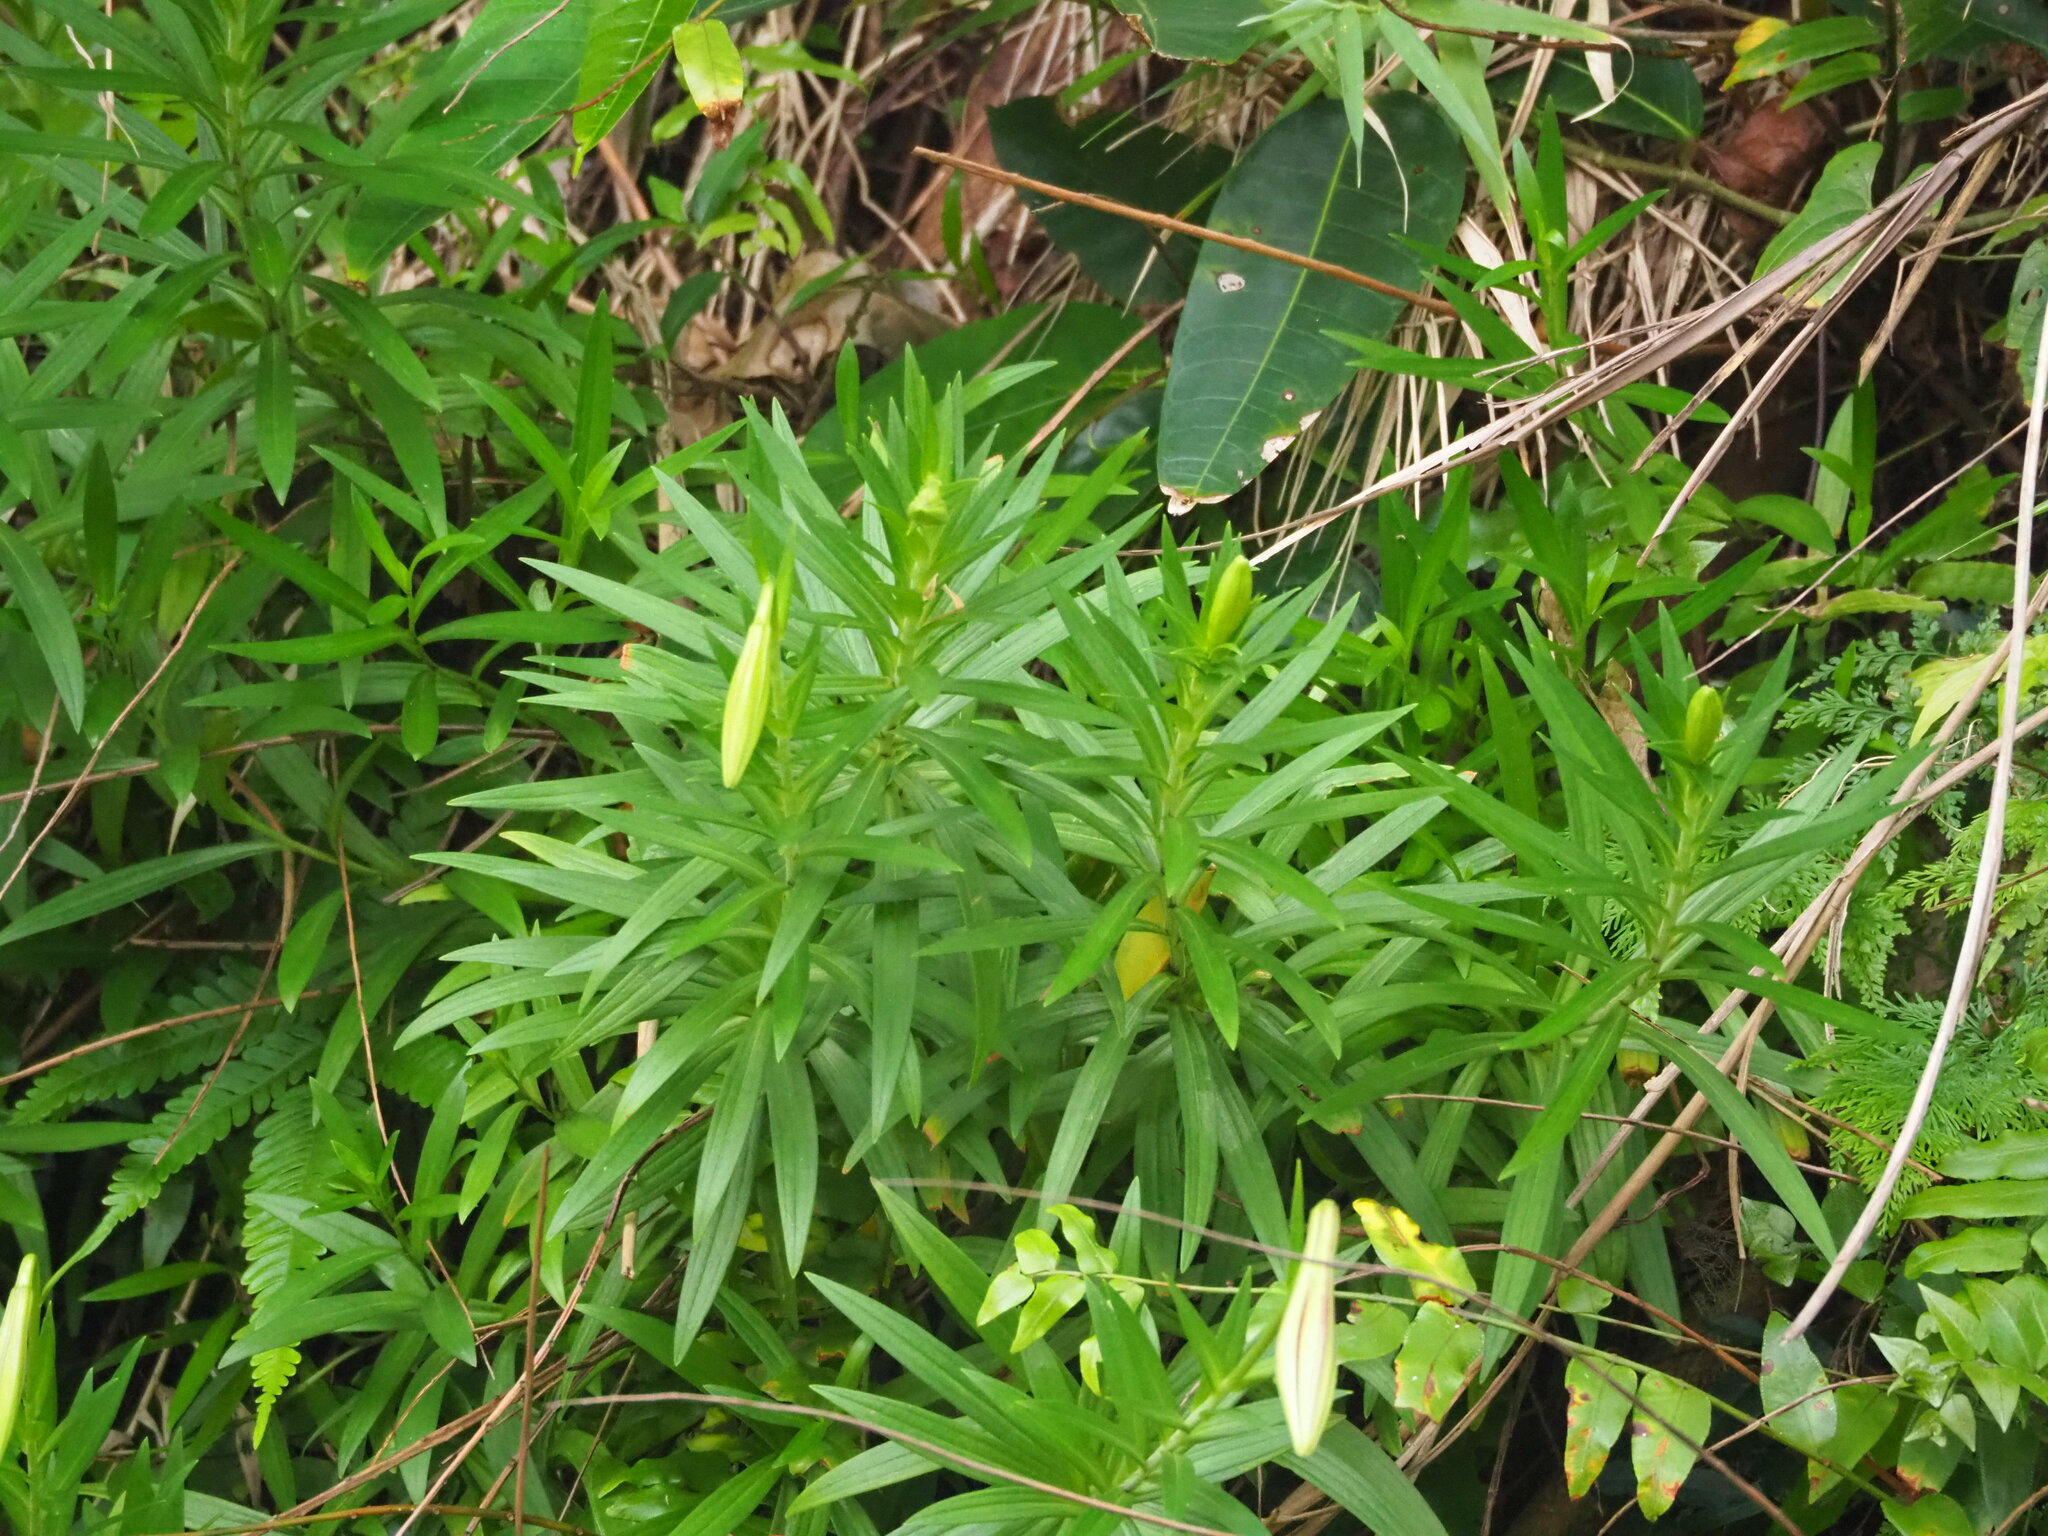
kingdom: Plantae
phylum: Tracheophyta
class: Liliopsida
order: Liliales
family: Liliaceae
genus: Lilium
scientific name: Lilium longiflorum
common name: Easter lily
